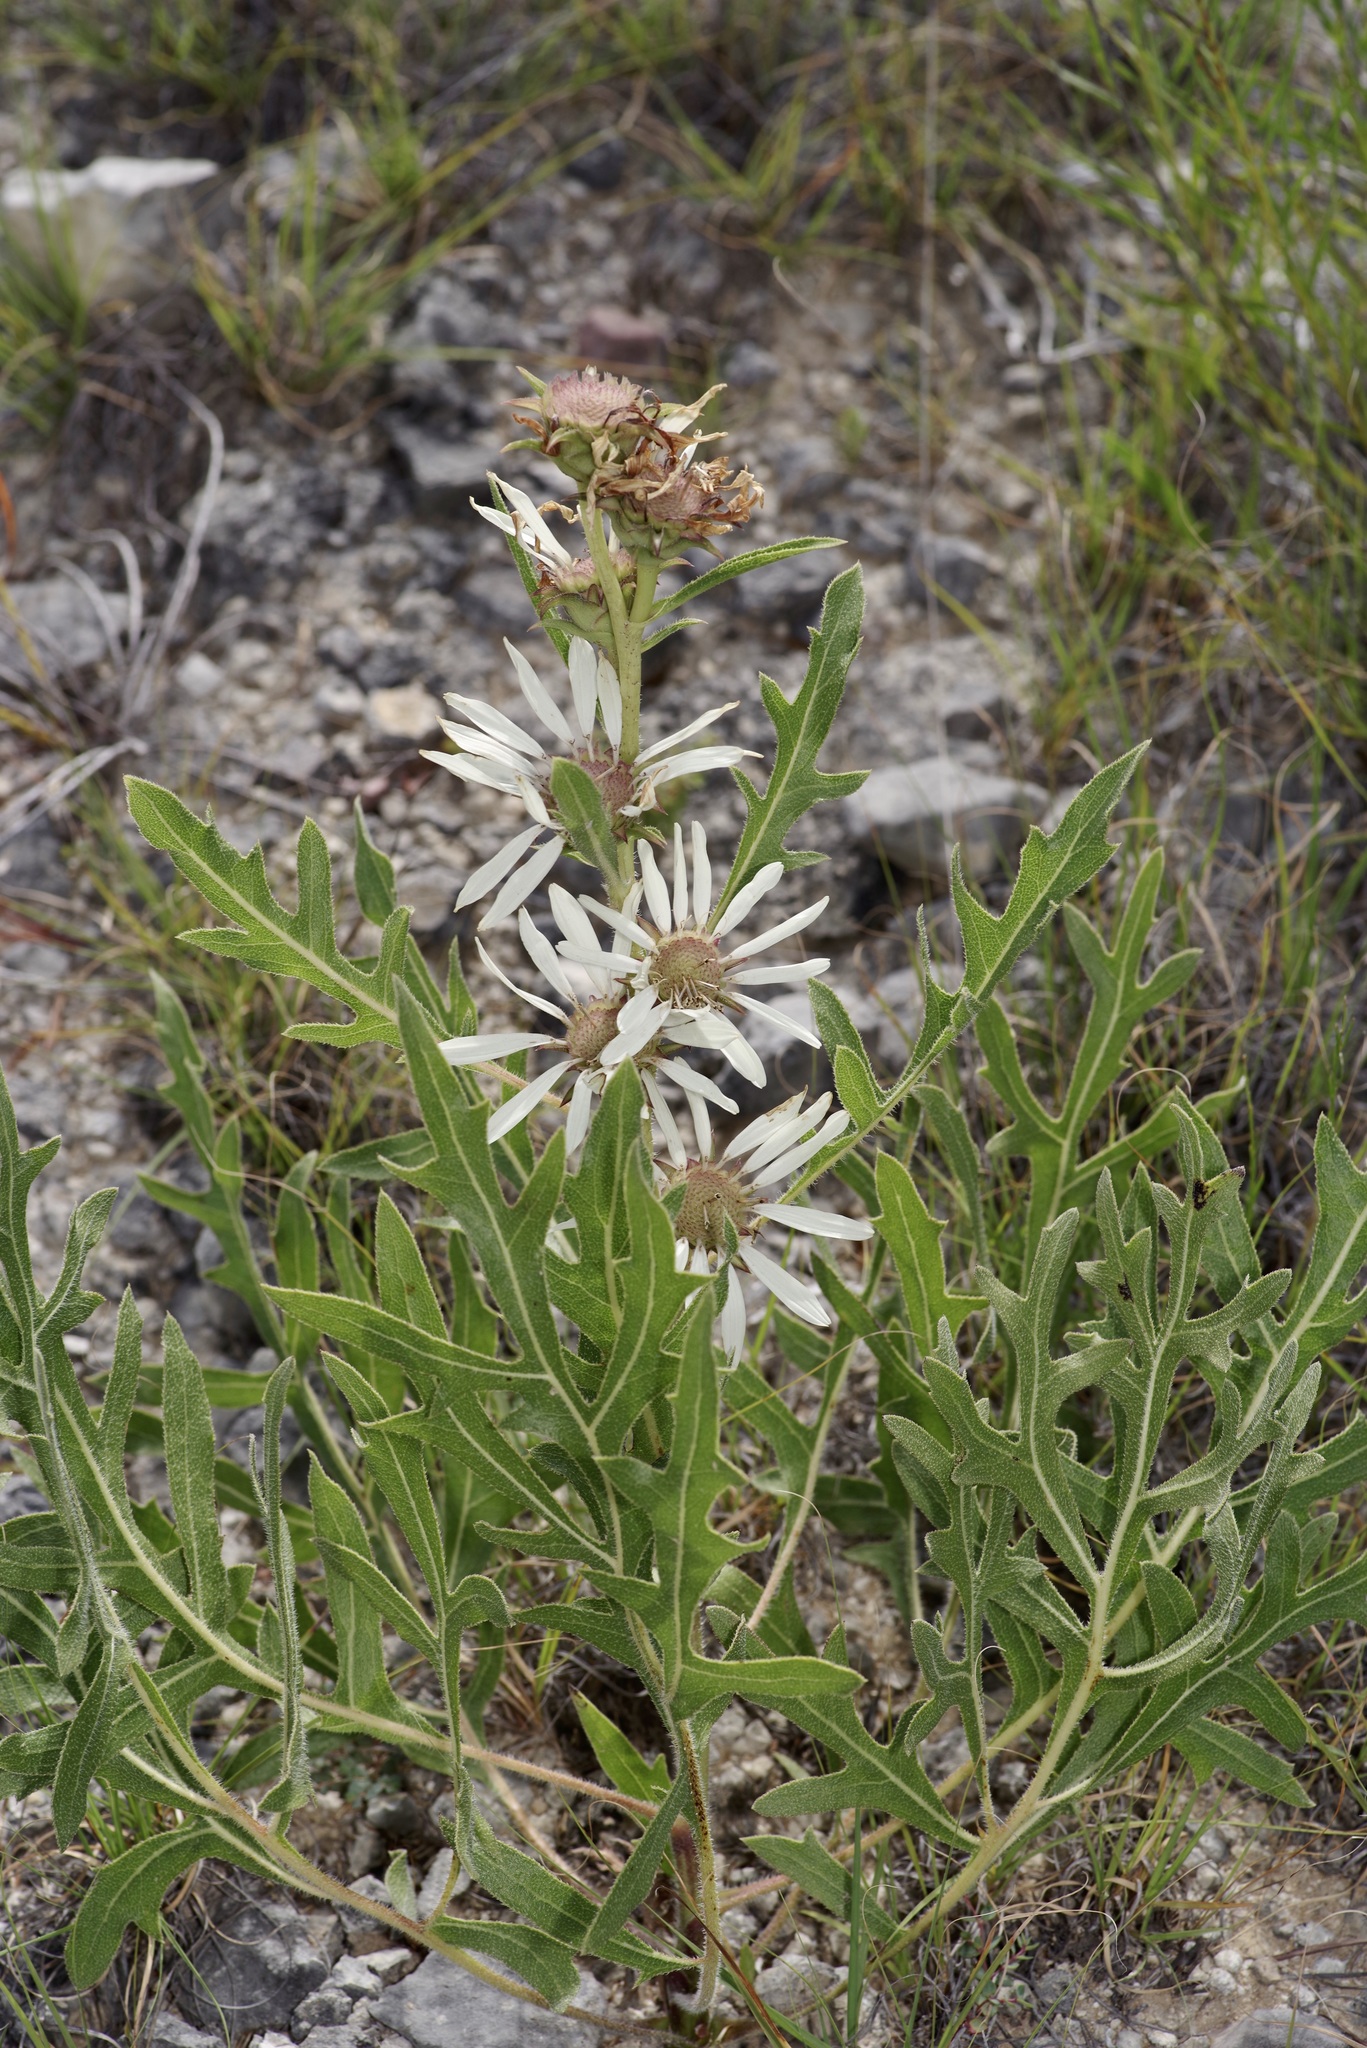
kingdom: Plantae
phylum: Tracheophyta
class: Magnoliopsida
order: Asterales
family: Asteraceae
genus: Silphium
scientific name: Silphium albiflorum
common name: White rosinweed
